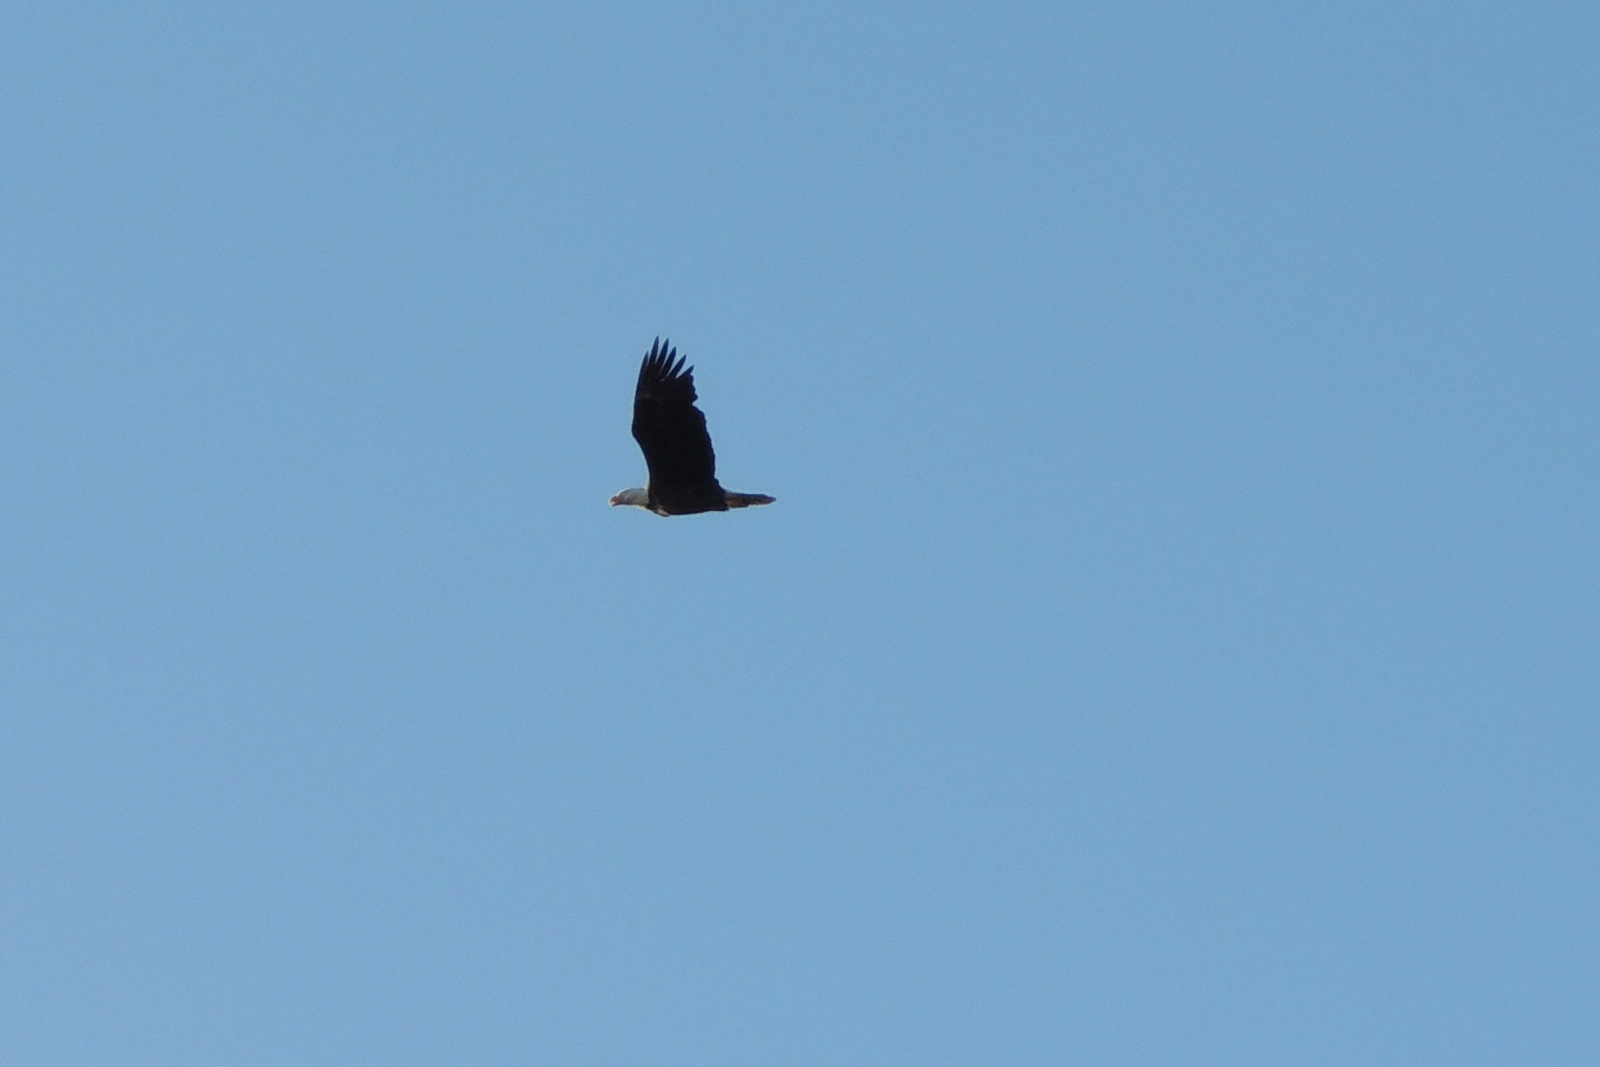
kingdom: Animalia
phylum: Chordata
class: Aves
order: Accipitriformes
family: Accipitridae
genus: Haliaeetus
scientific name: Haliaeetus leucocephalus
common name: Bald eagle
